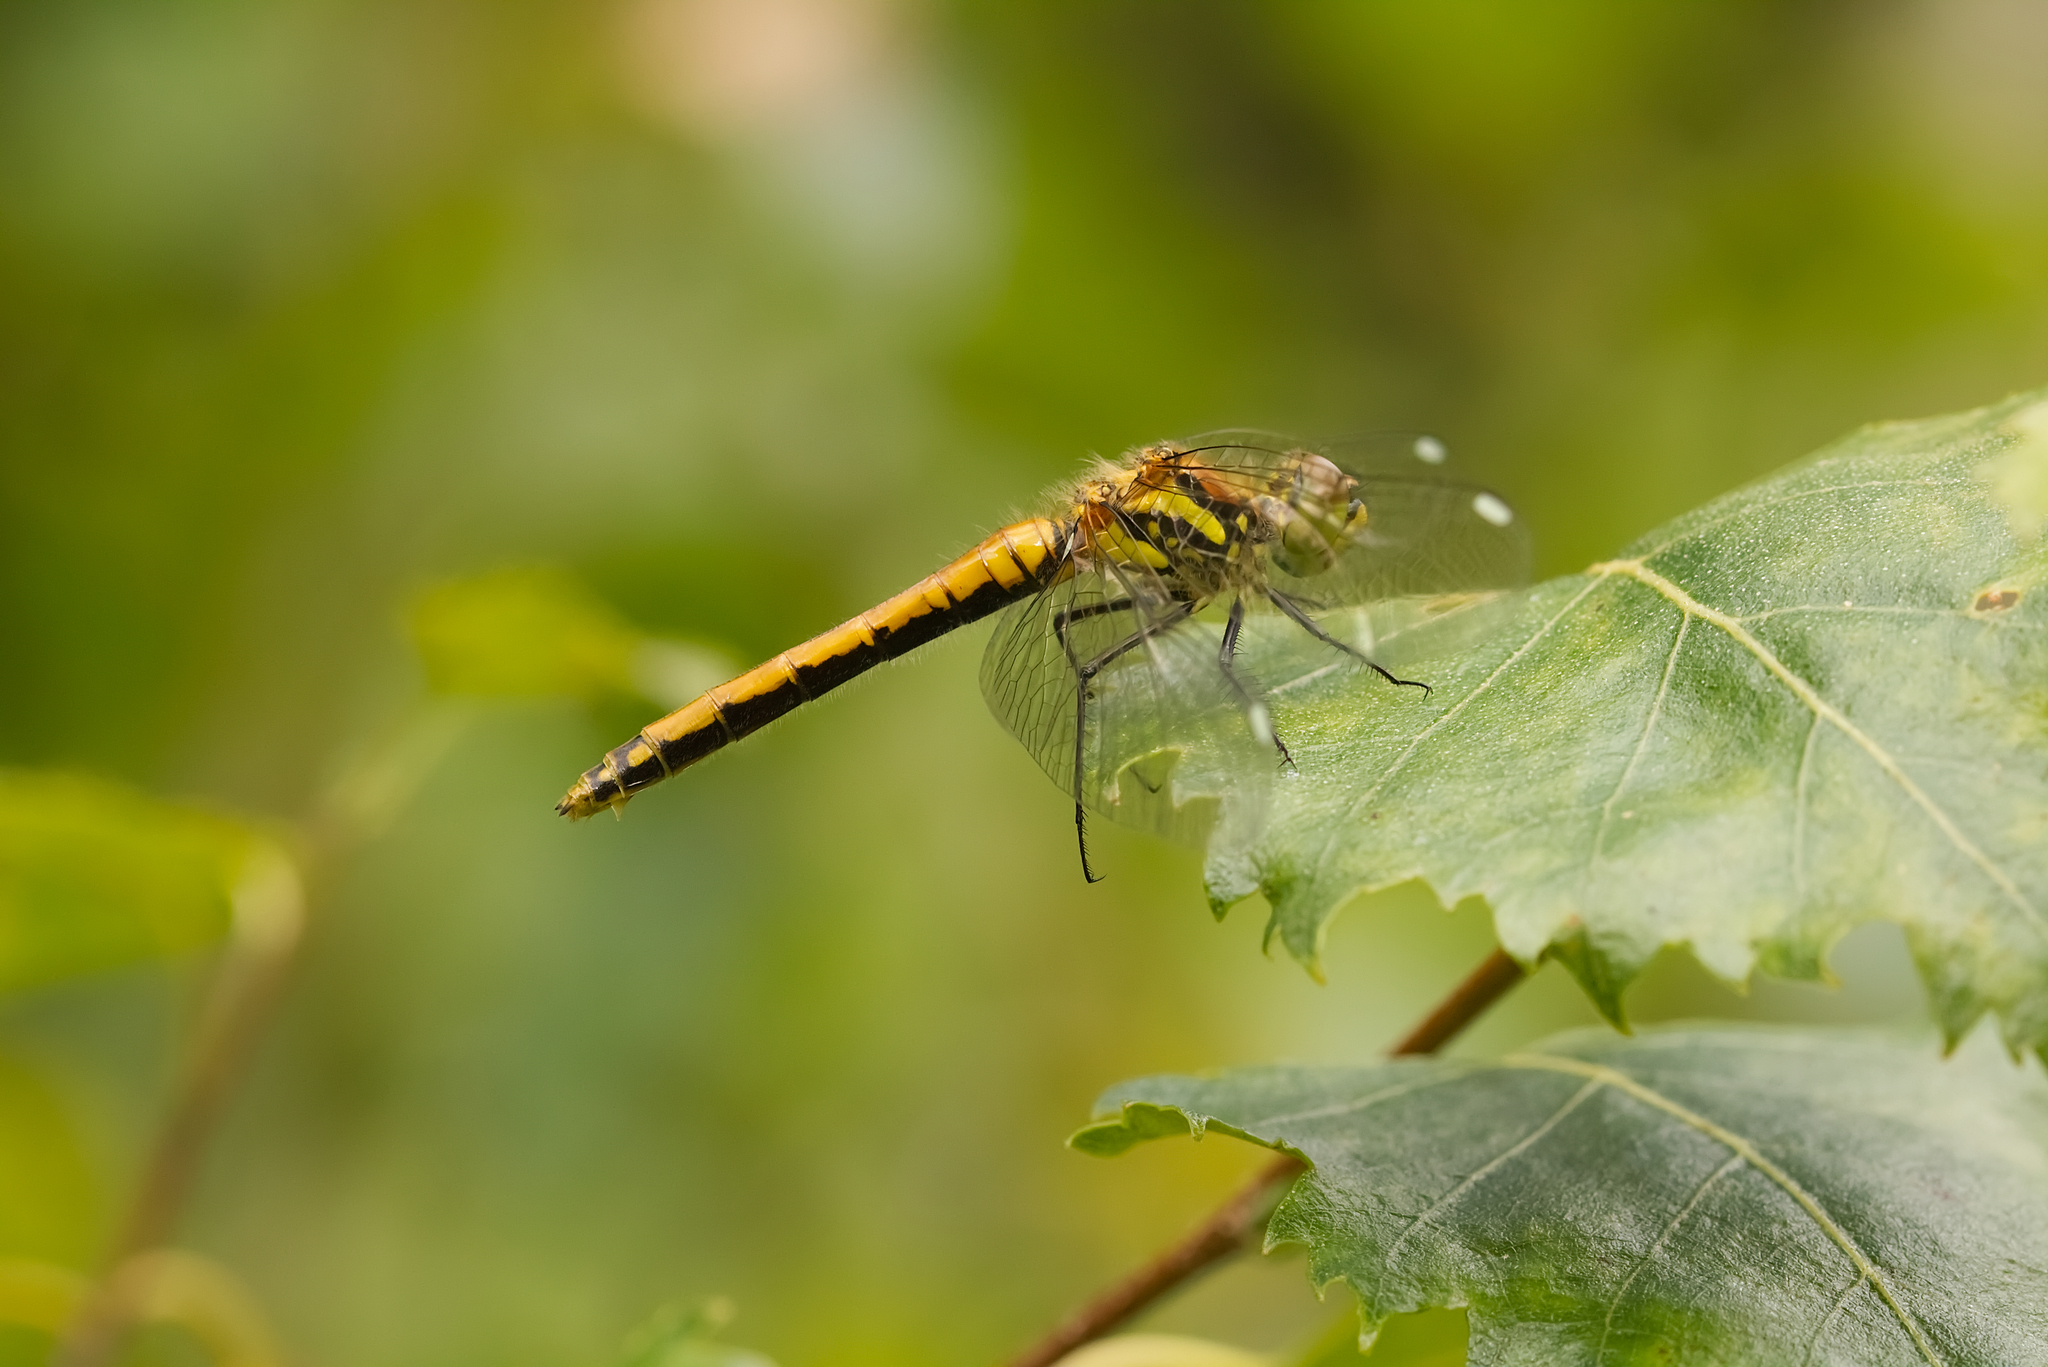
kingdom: Animalia
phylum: Arthropoda
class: Insecta
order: Odonata
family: Libellulidae
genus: Sympetrum
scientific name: Sympetrum danae
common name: Black darter
